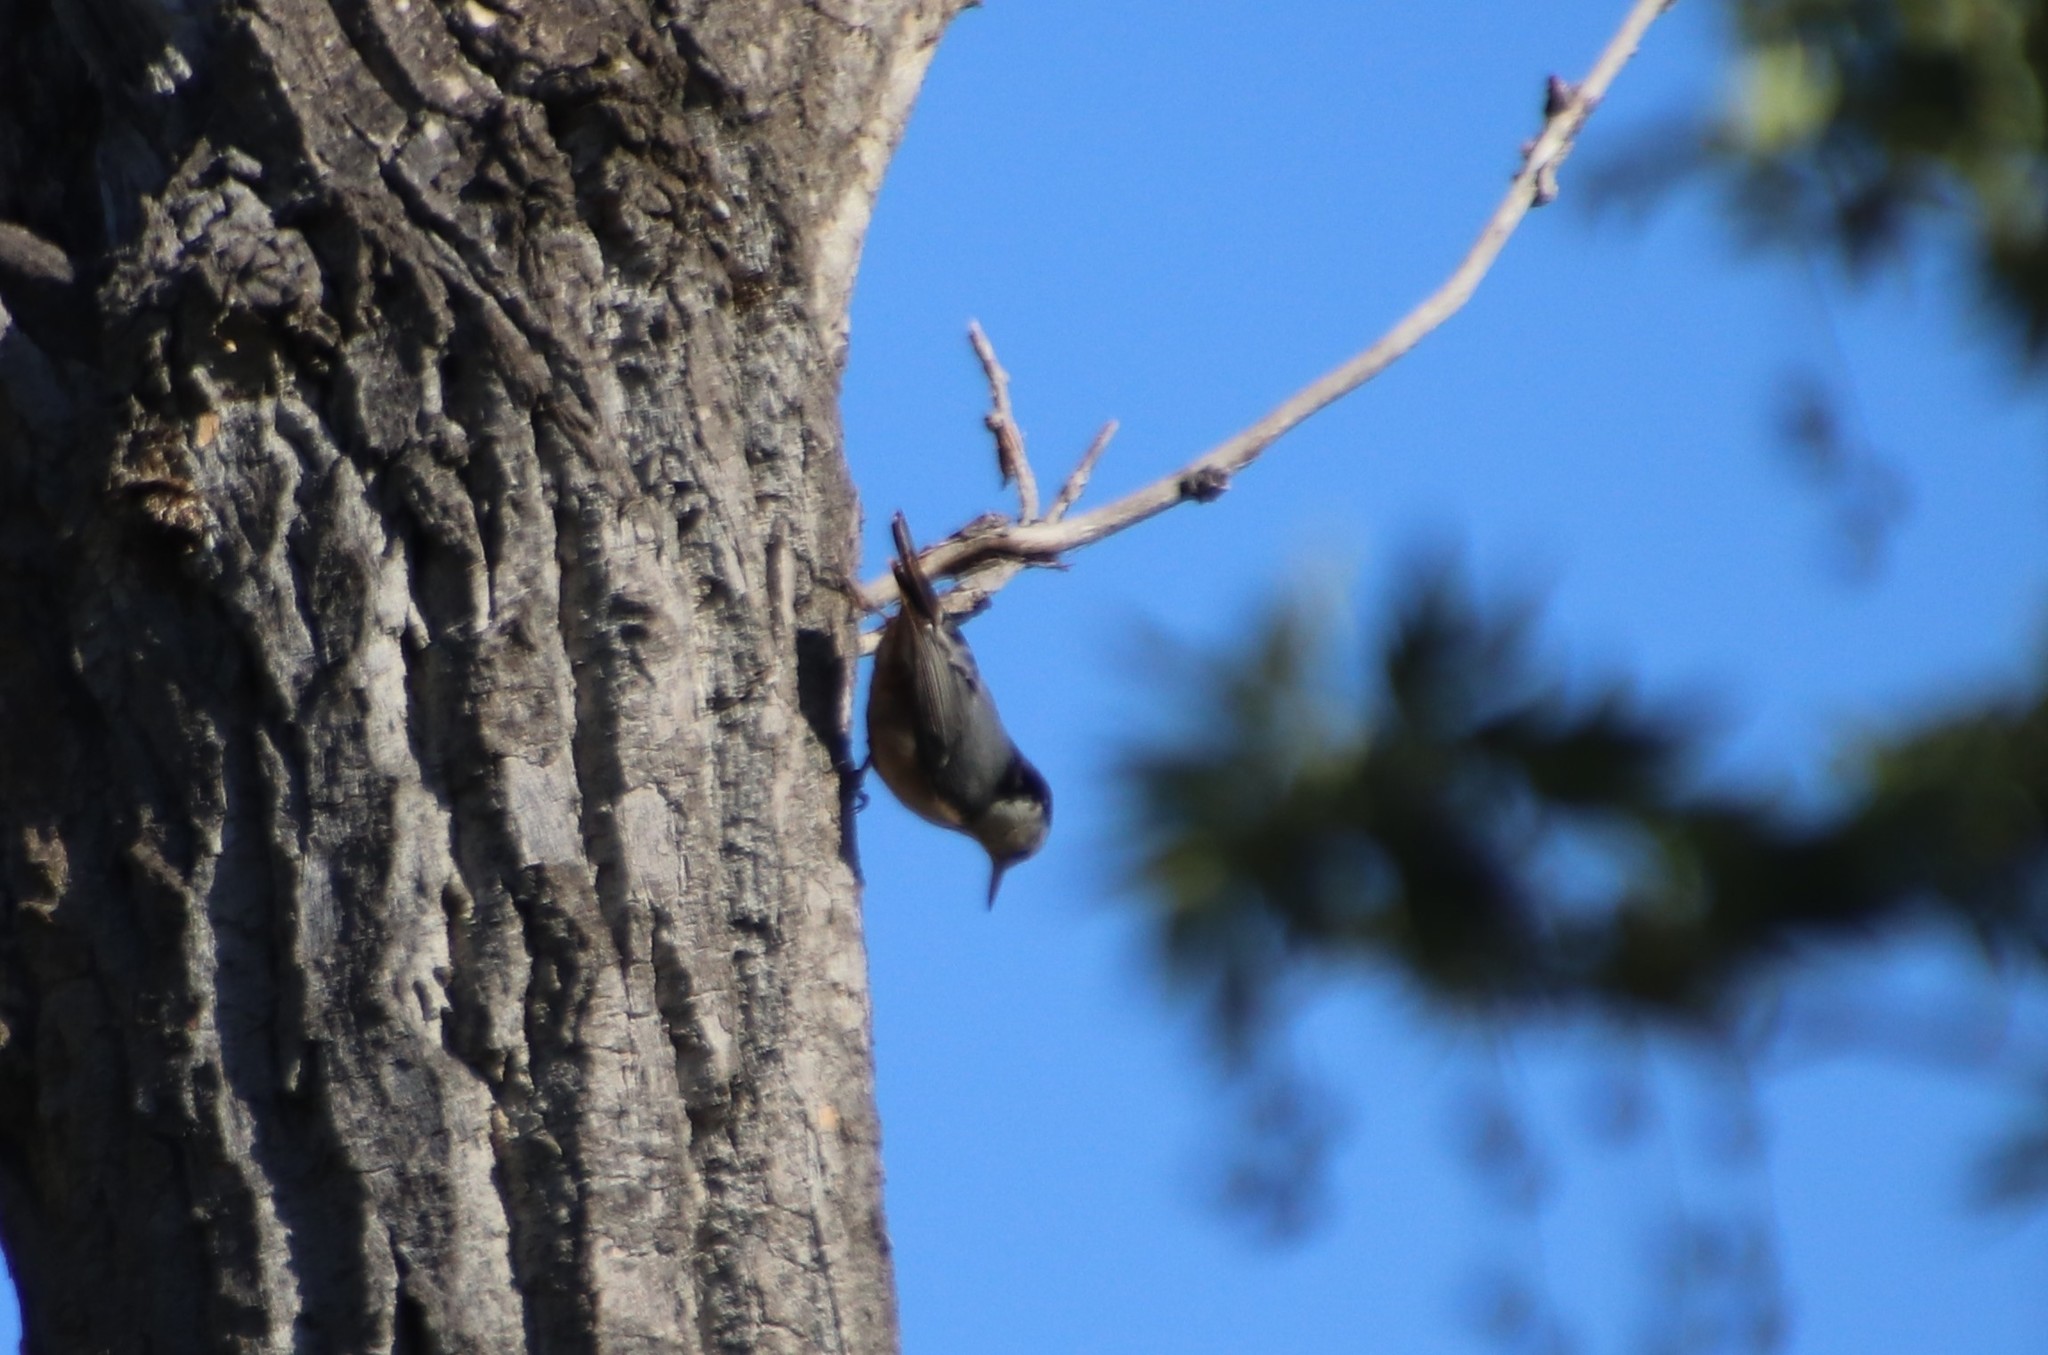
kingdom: Animalia
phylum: Chordata
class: Aves
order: Passeriformes
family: Sittidae
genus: Sitta
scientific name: Sitta carolinensis
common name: White-breasted nuthatch
